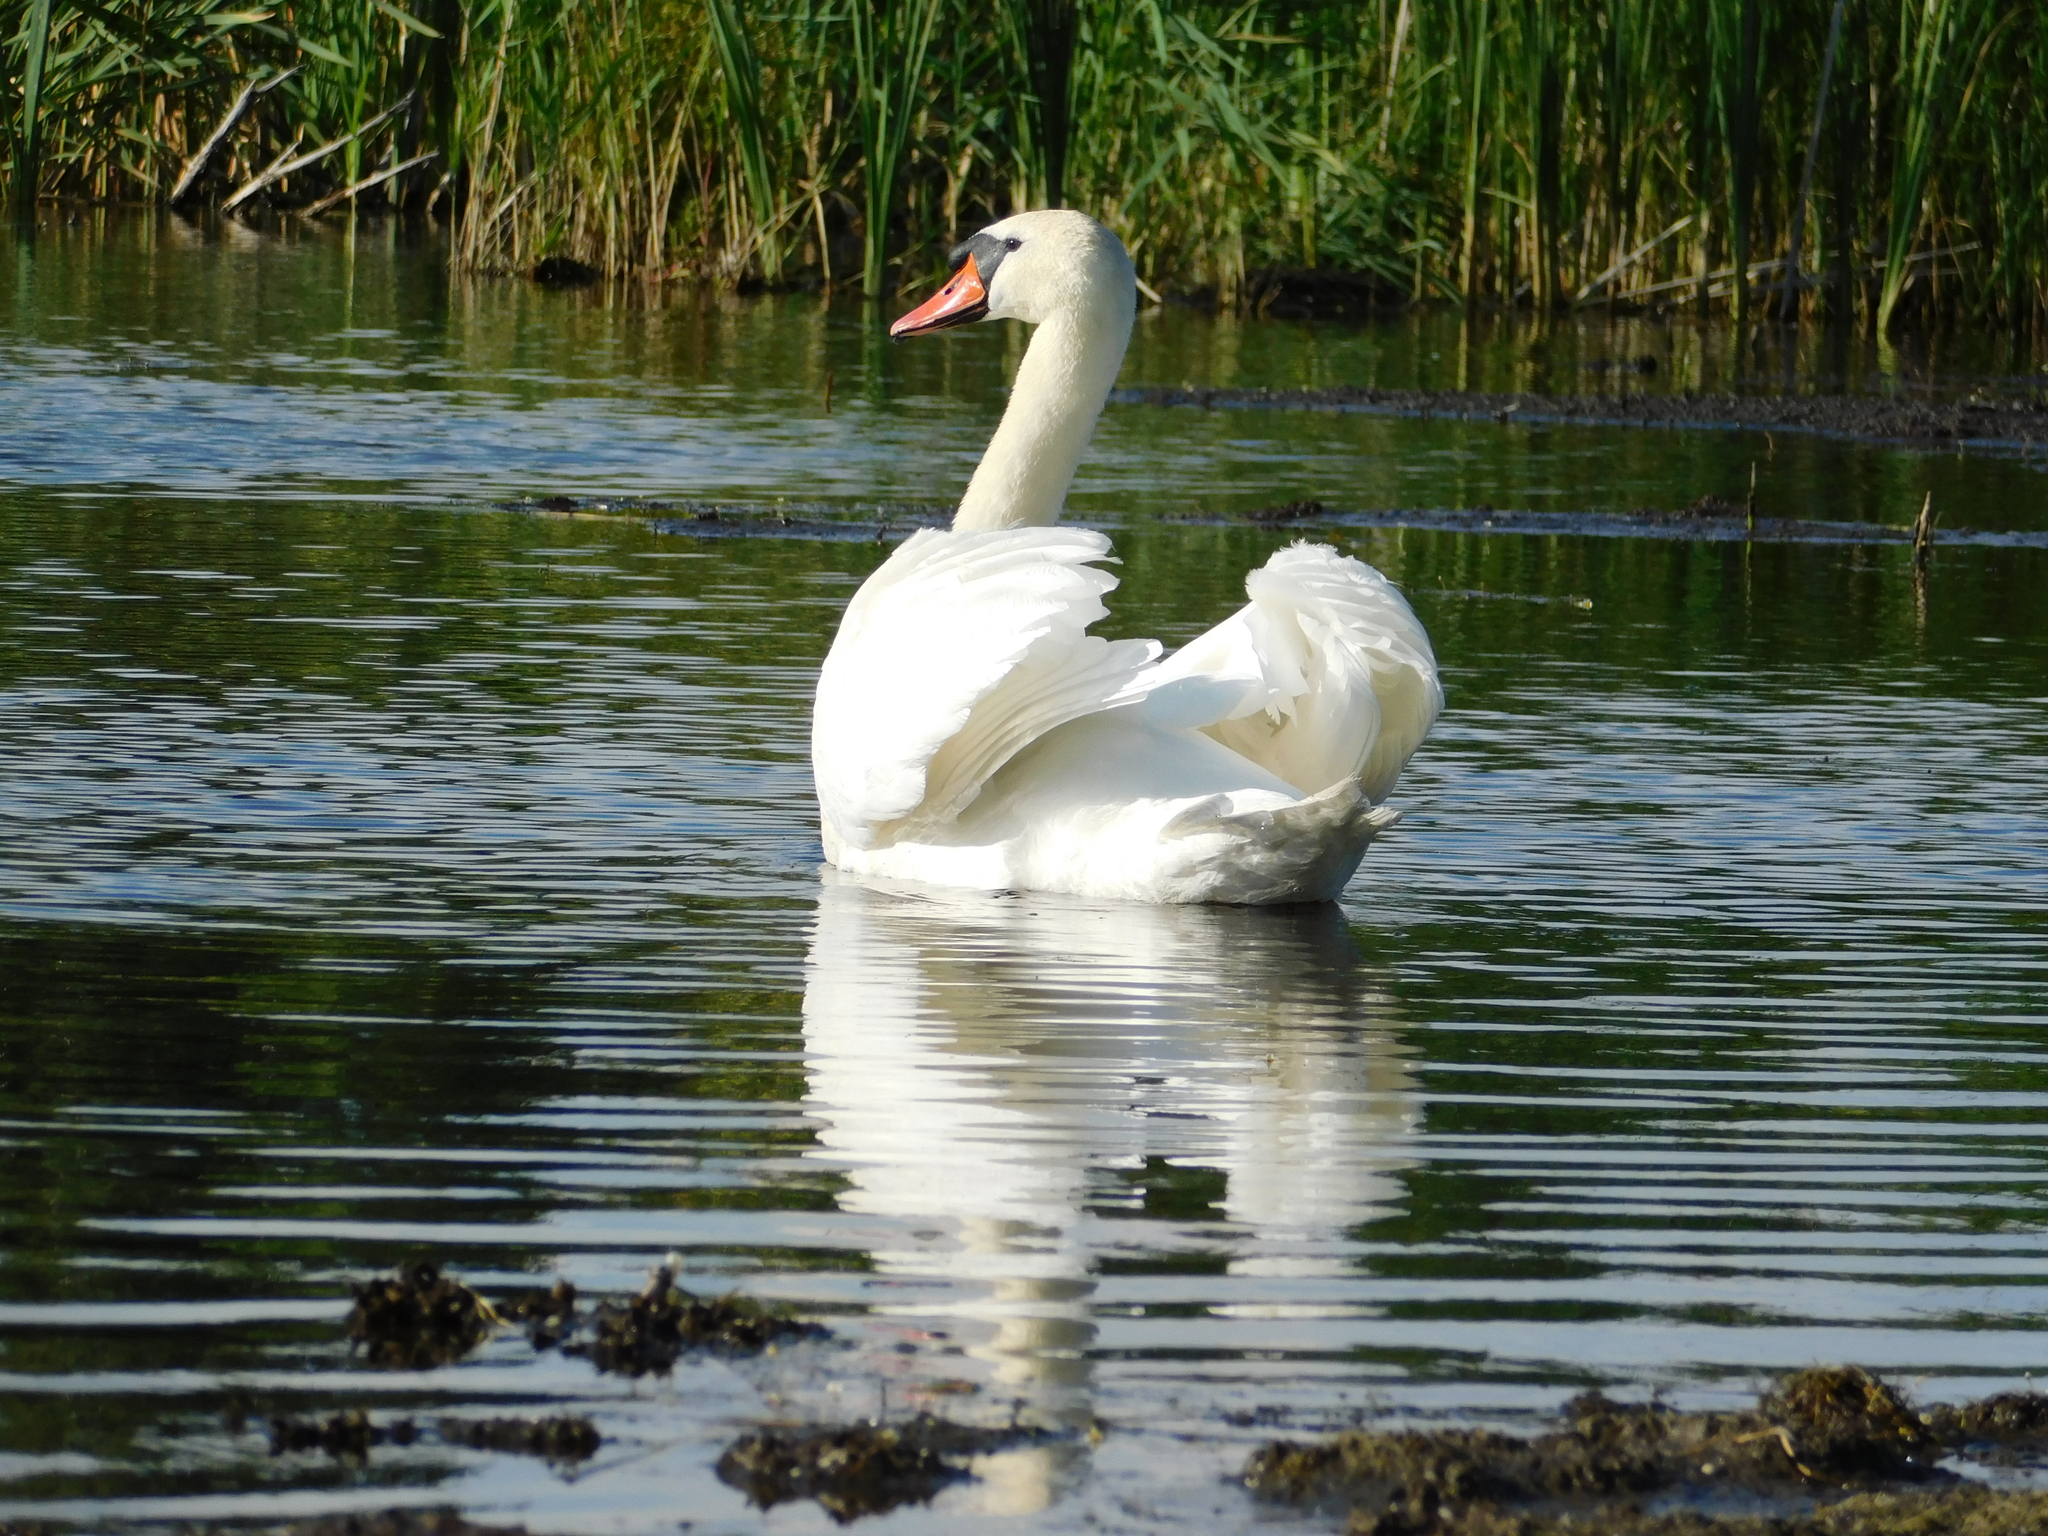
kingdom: Animalia
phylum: Chordata
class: Aves
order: Anseriformes
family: Anatidae
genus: Cygnus
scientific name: Cygnus olor
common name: Mute swan
